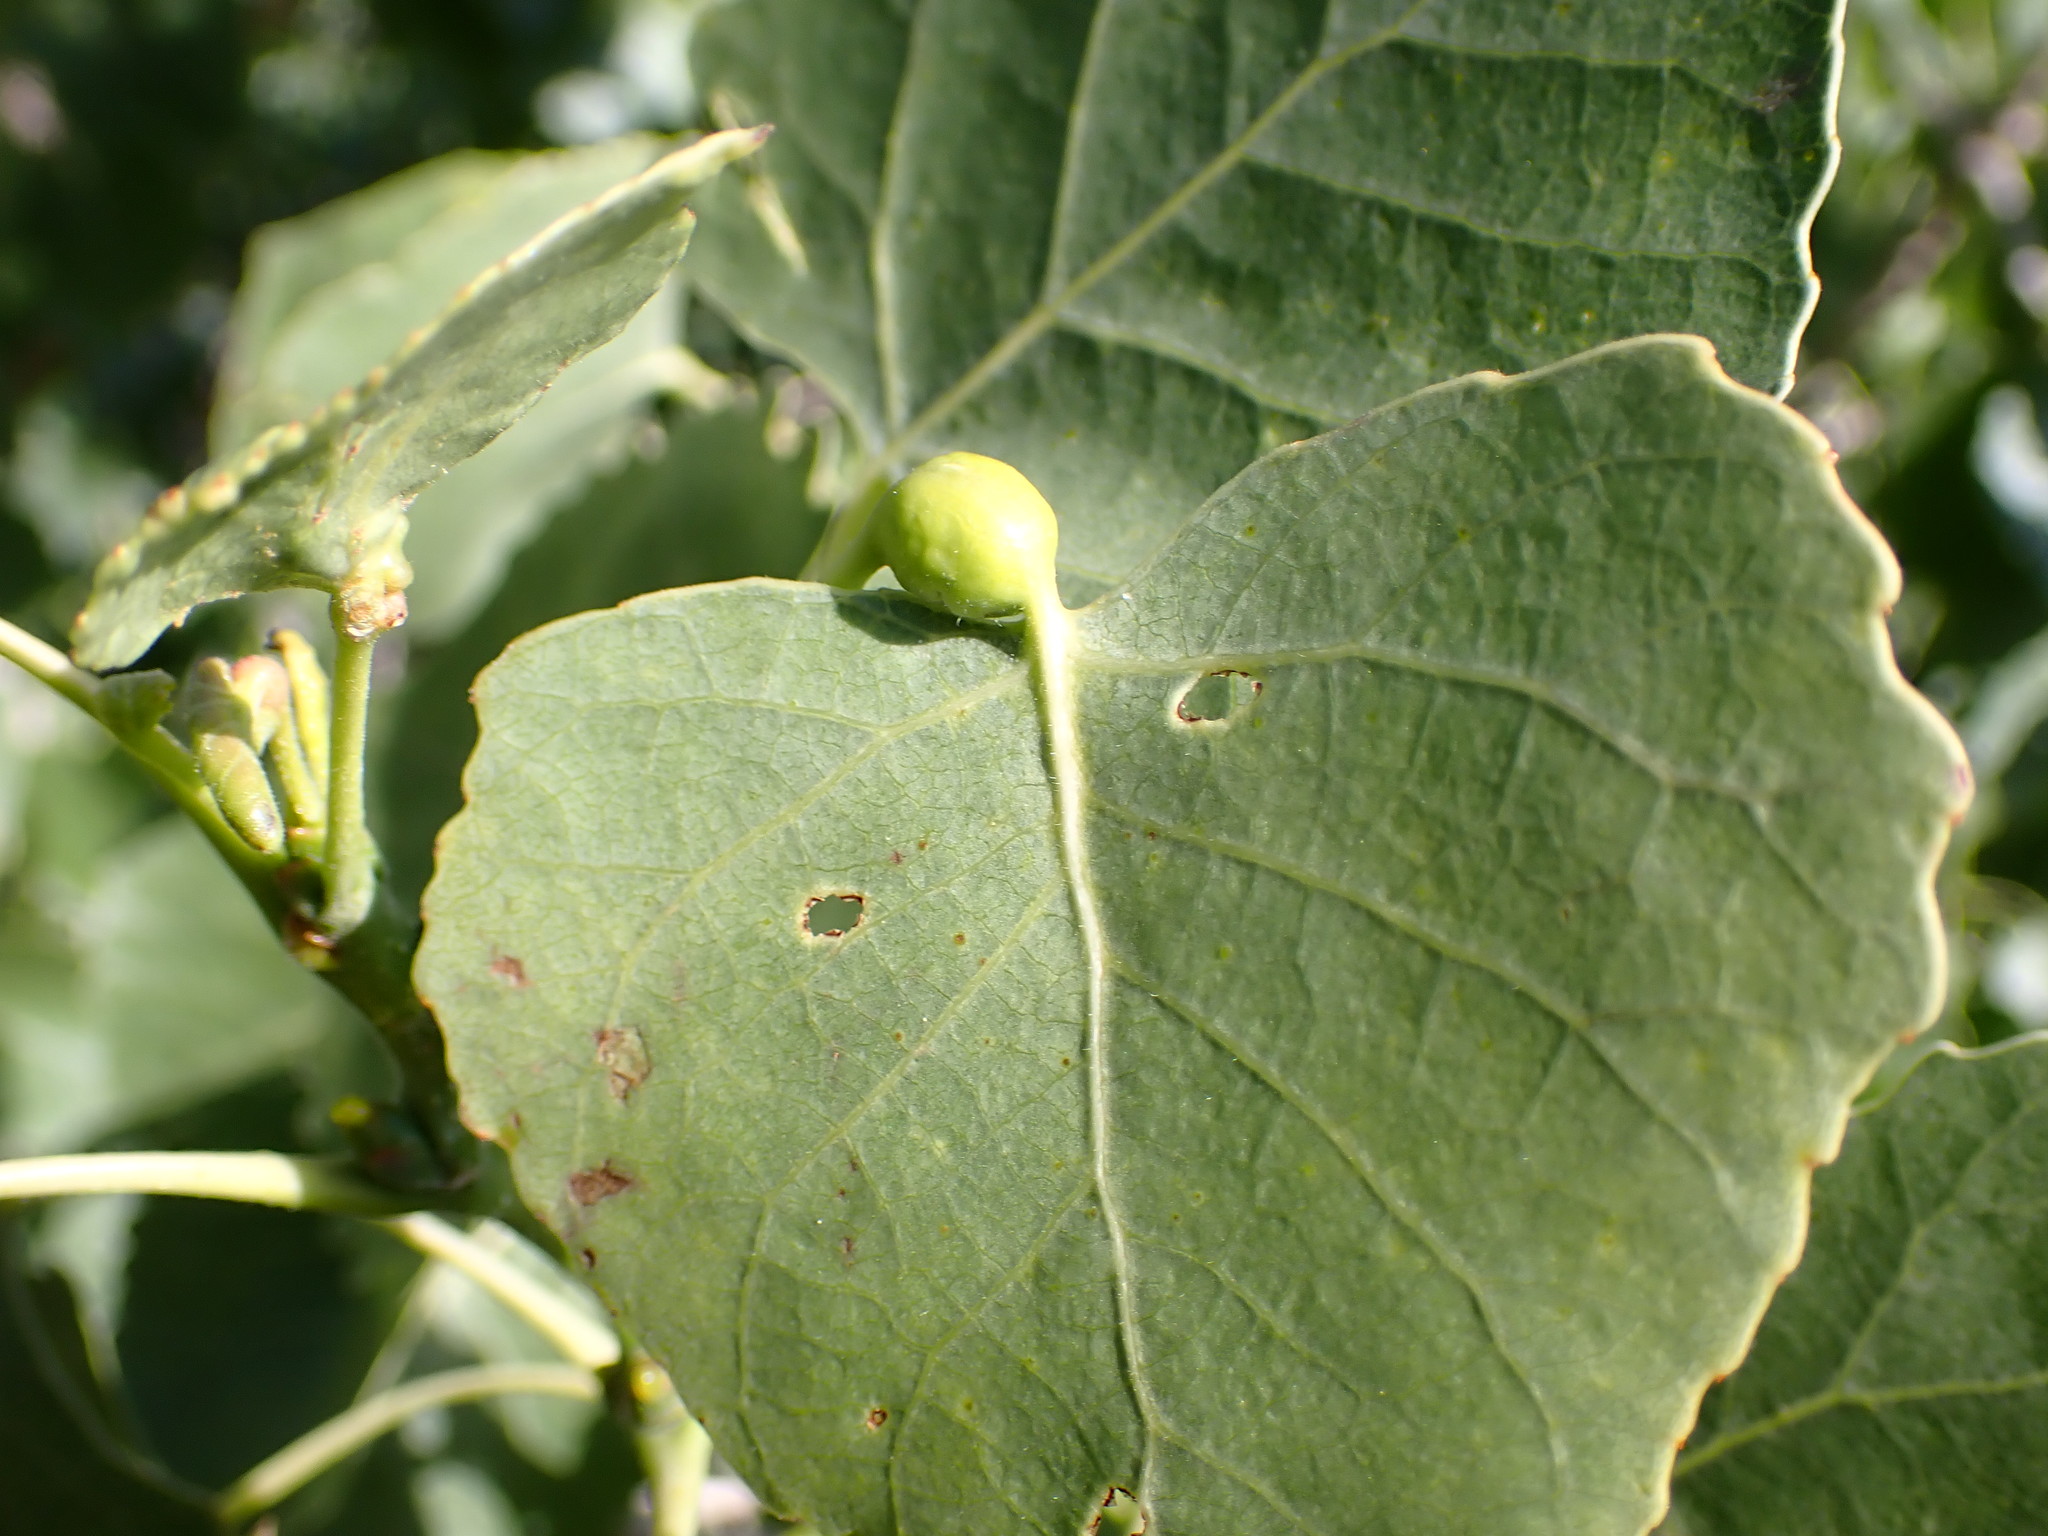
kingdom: Animalia
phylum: Arthropoda
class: Insecta
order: Hemiptera
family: Aphididae
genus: Pemphigus
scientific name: Pemphigus obesinymphae
